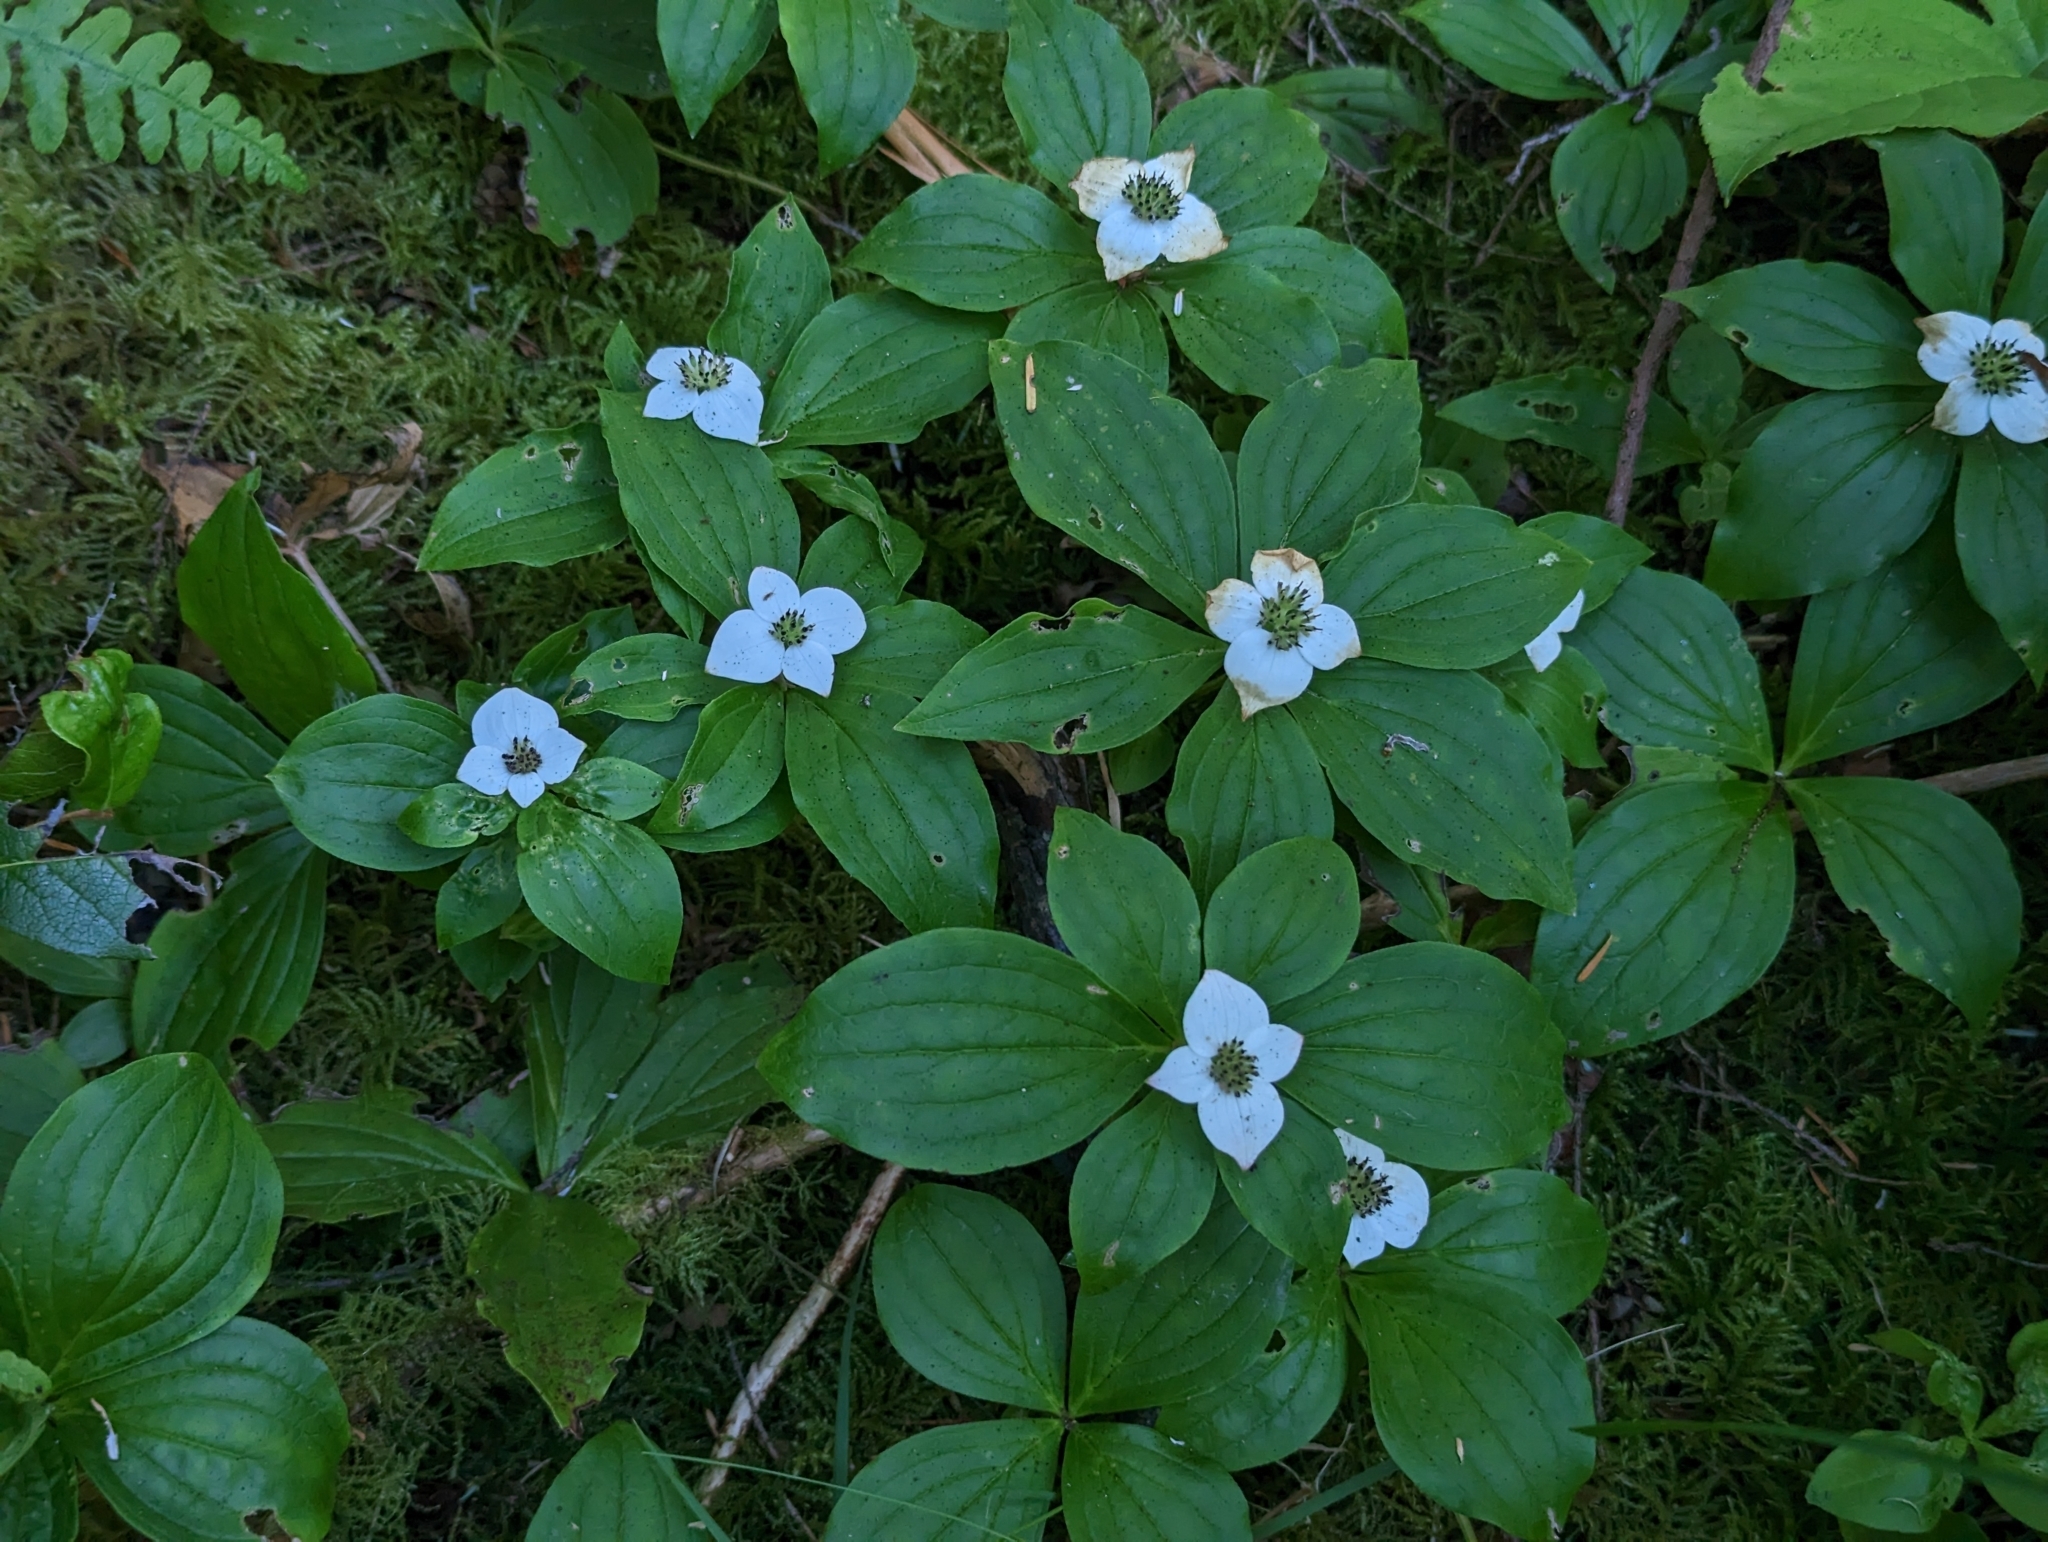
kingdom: Plantae
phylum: Tracheophyta
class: Magnoliopsida
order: Cornales
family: Cornaceae
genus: Cornus
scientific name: Cornus unalaschkensis
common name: Alaska bunchberry
